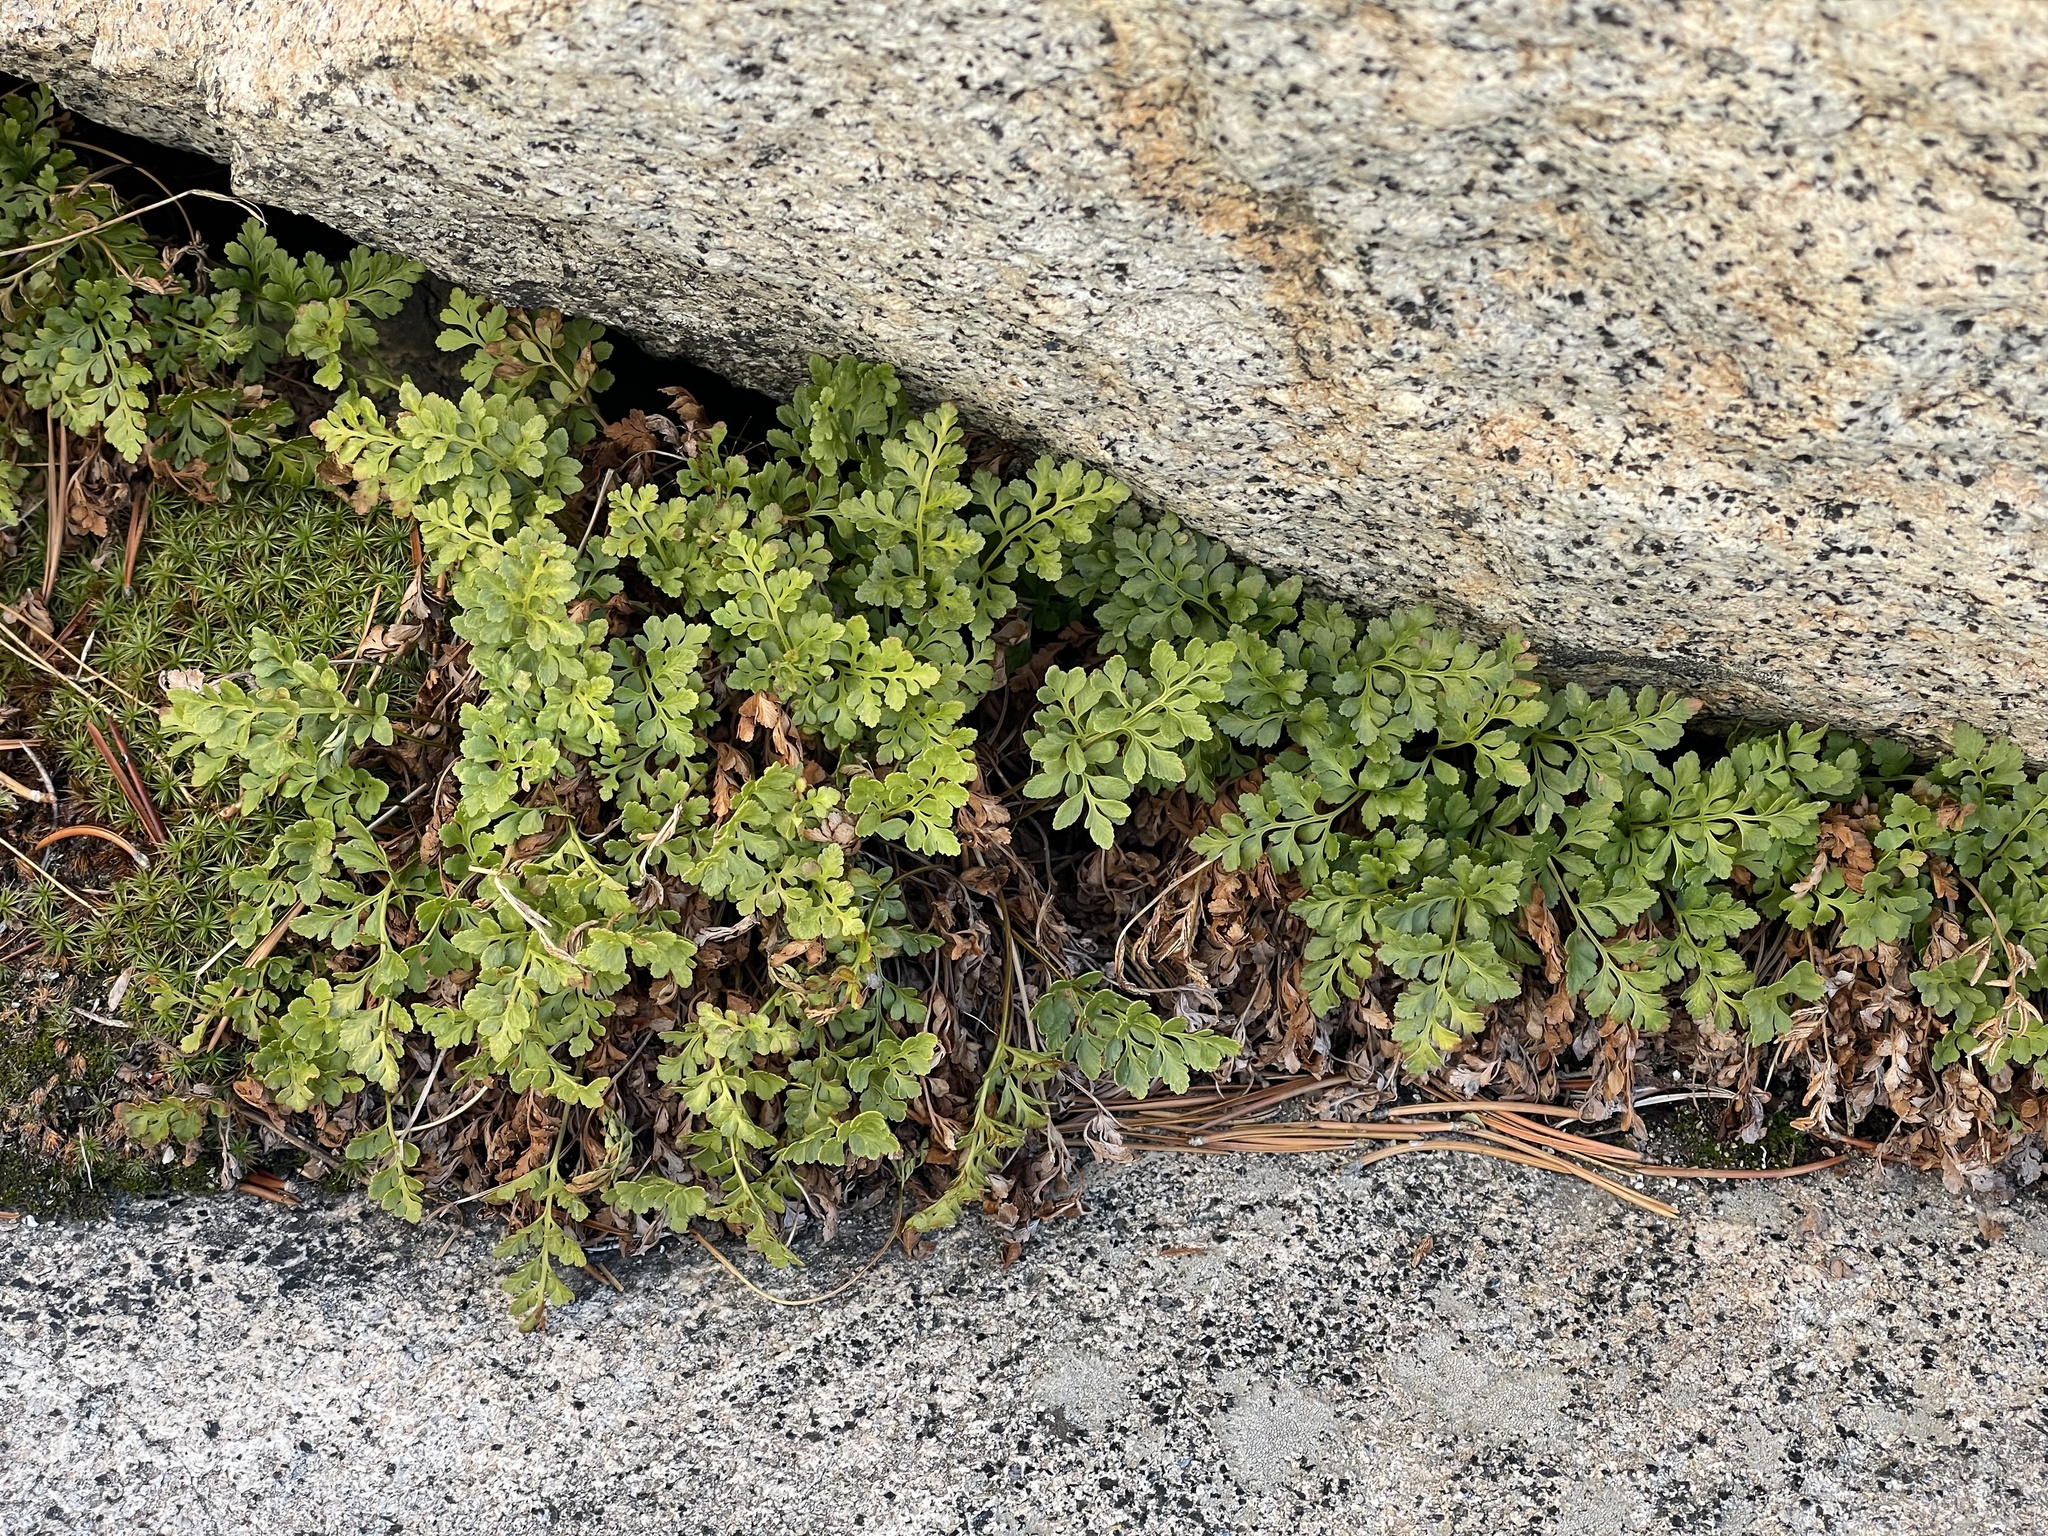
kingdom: Plantae
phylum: Tracheophyta
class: Polypodiopsida
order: Polypodiales
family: Pteridaceae
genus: Cryptogramma
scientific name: Cryptogramma acrostichoides
